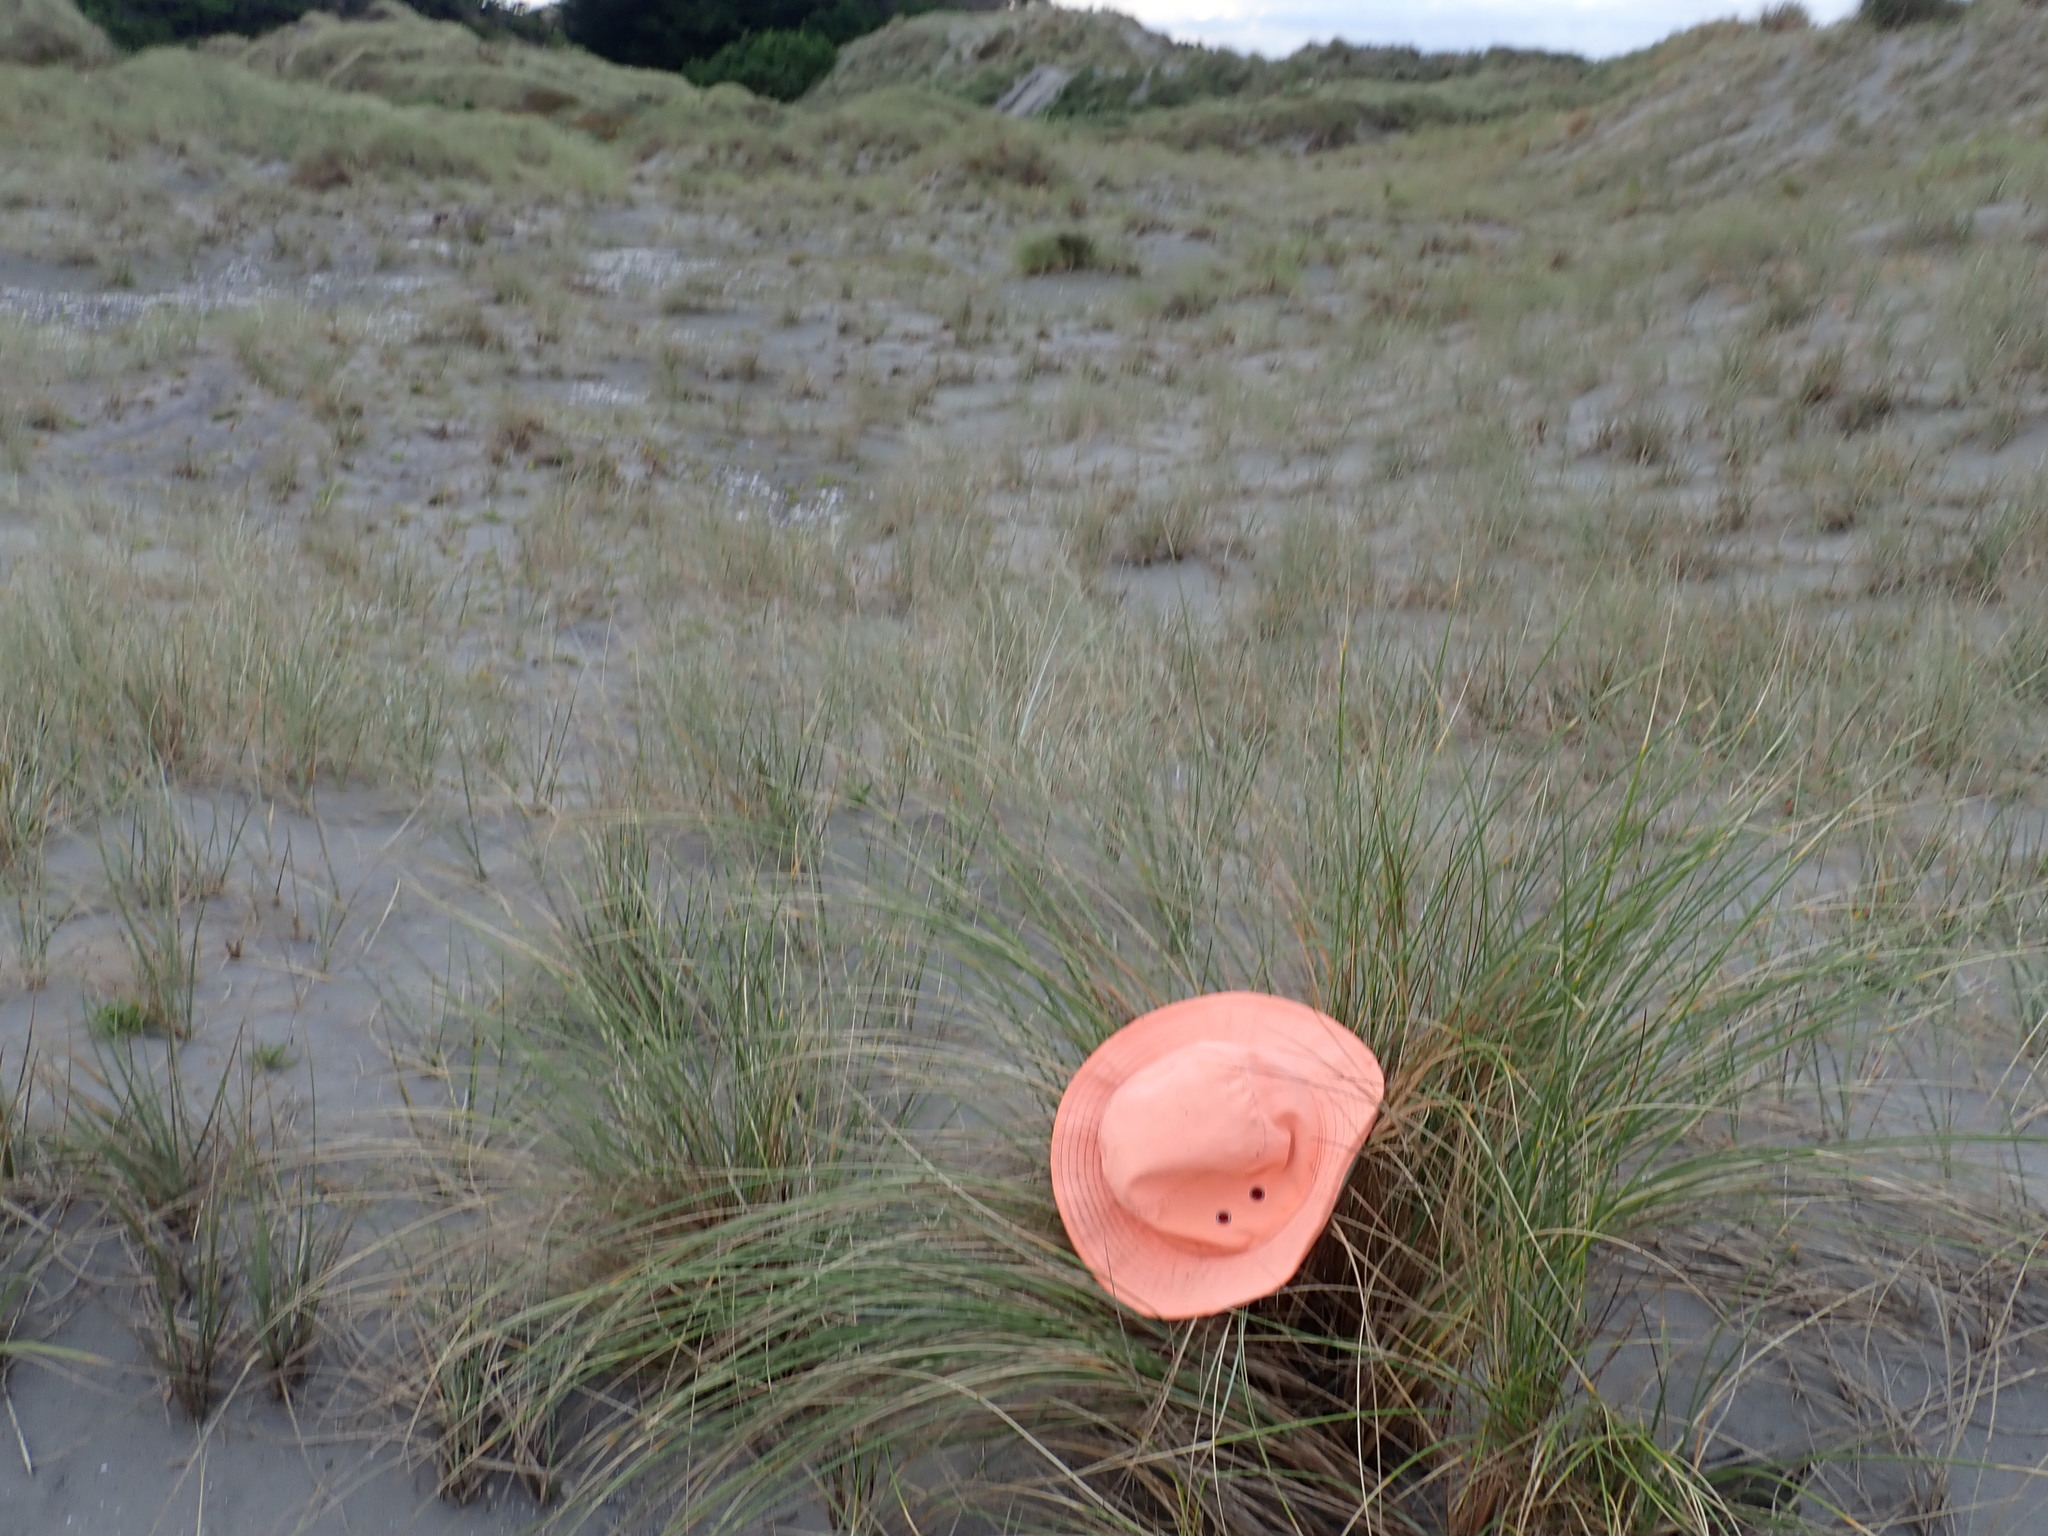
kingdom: Animalia
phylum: Arthropoda
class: Insecta
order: Dermaptera
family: Forficulidae
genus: Forficula
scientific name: Forficula
